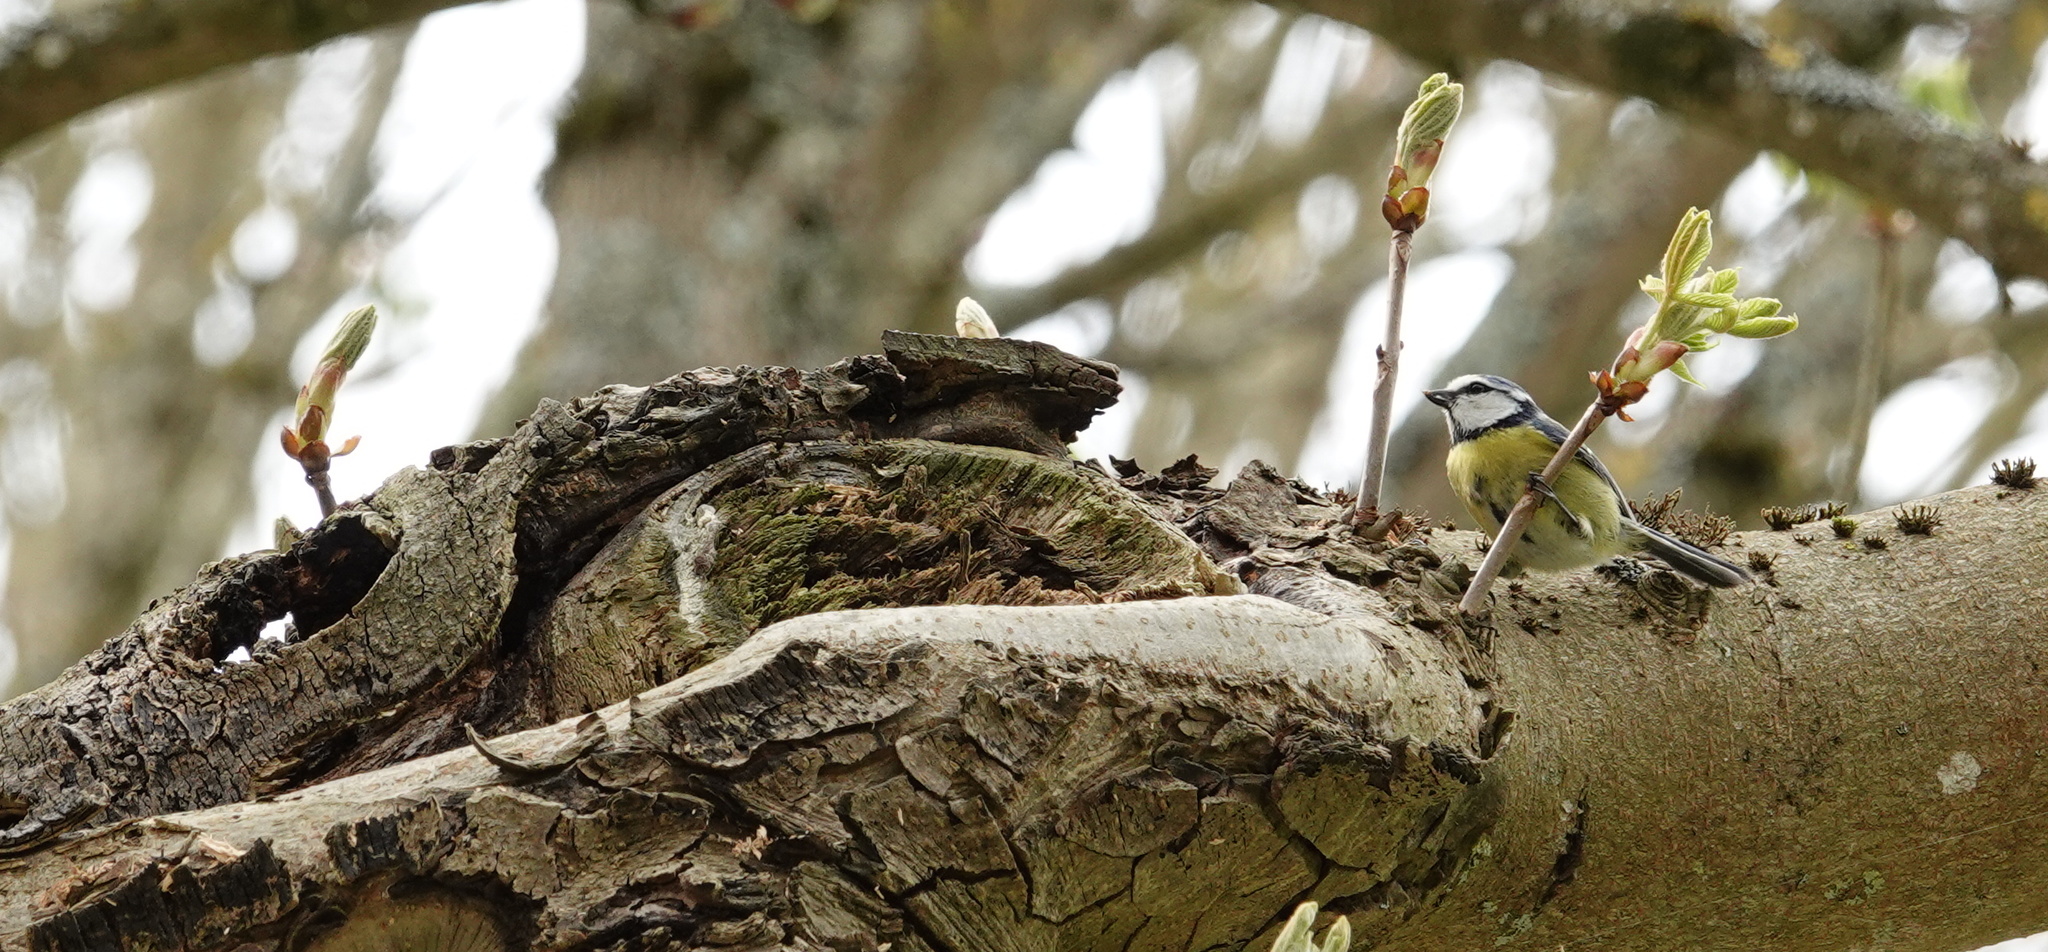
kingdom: Animalia
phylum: Chordata
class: Aves
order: Passeriformes
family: Paridae
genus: Cyanistes
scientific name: Cyanistes caeruleus
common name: Eurasian blue tit
